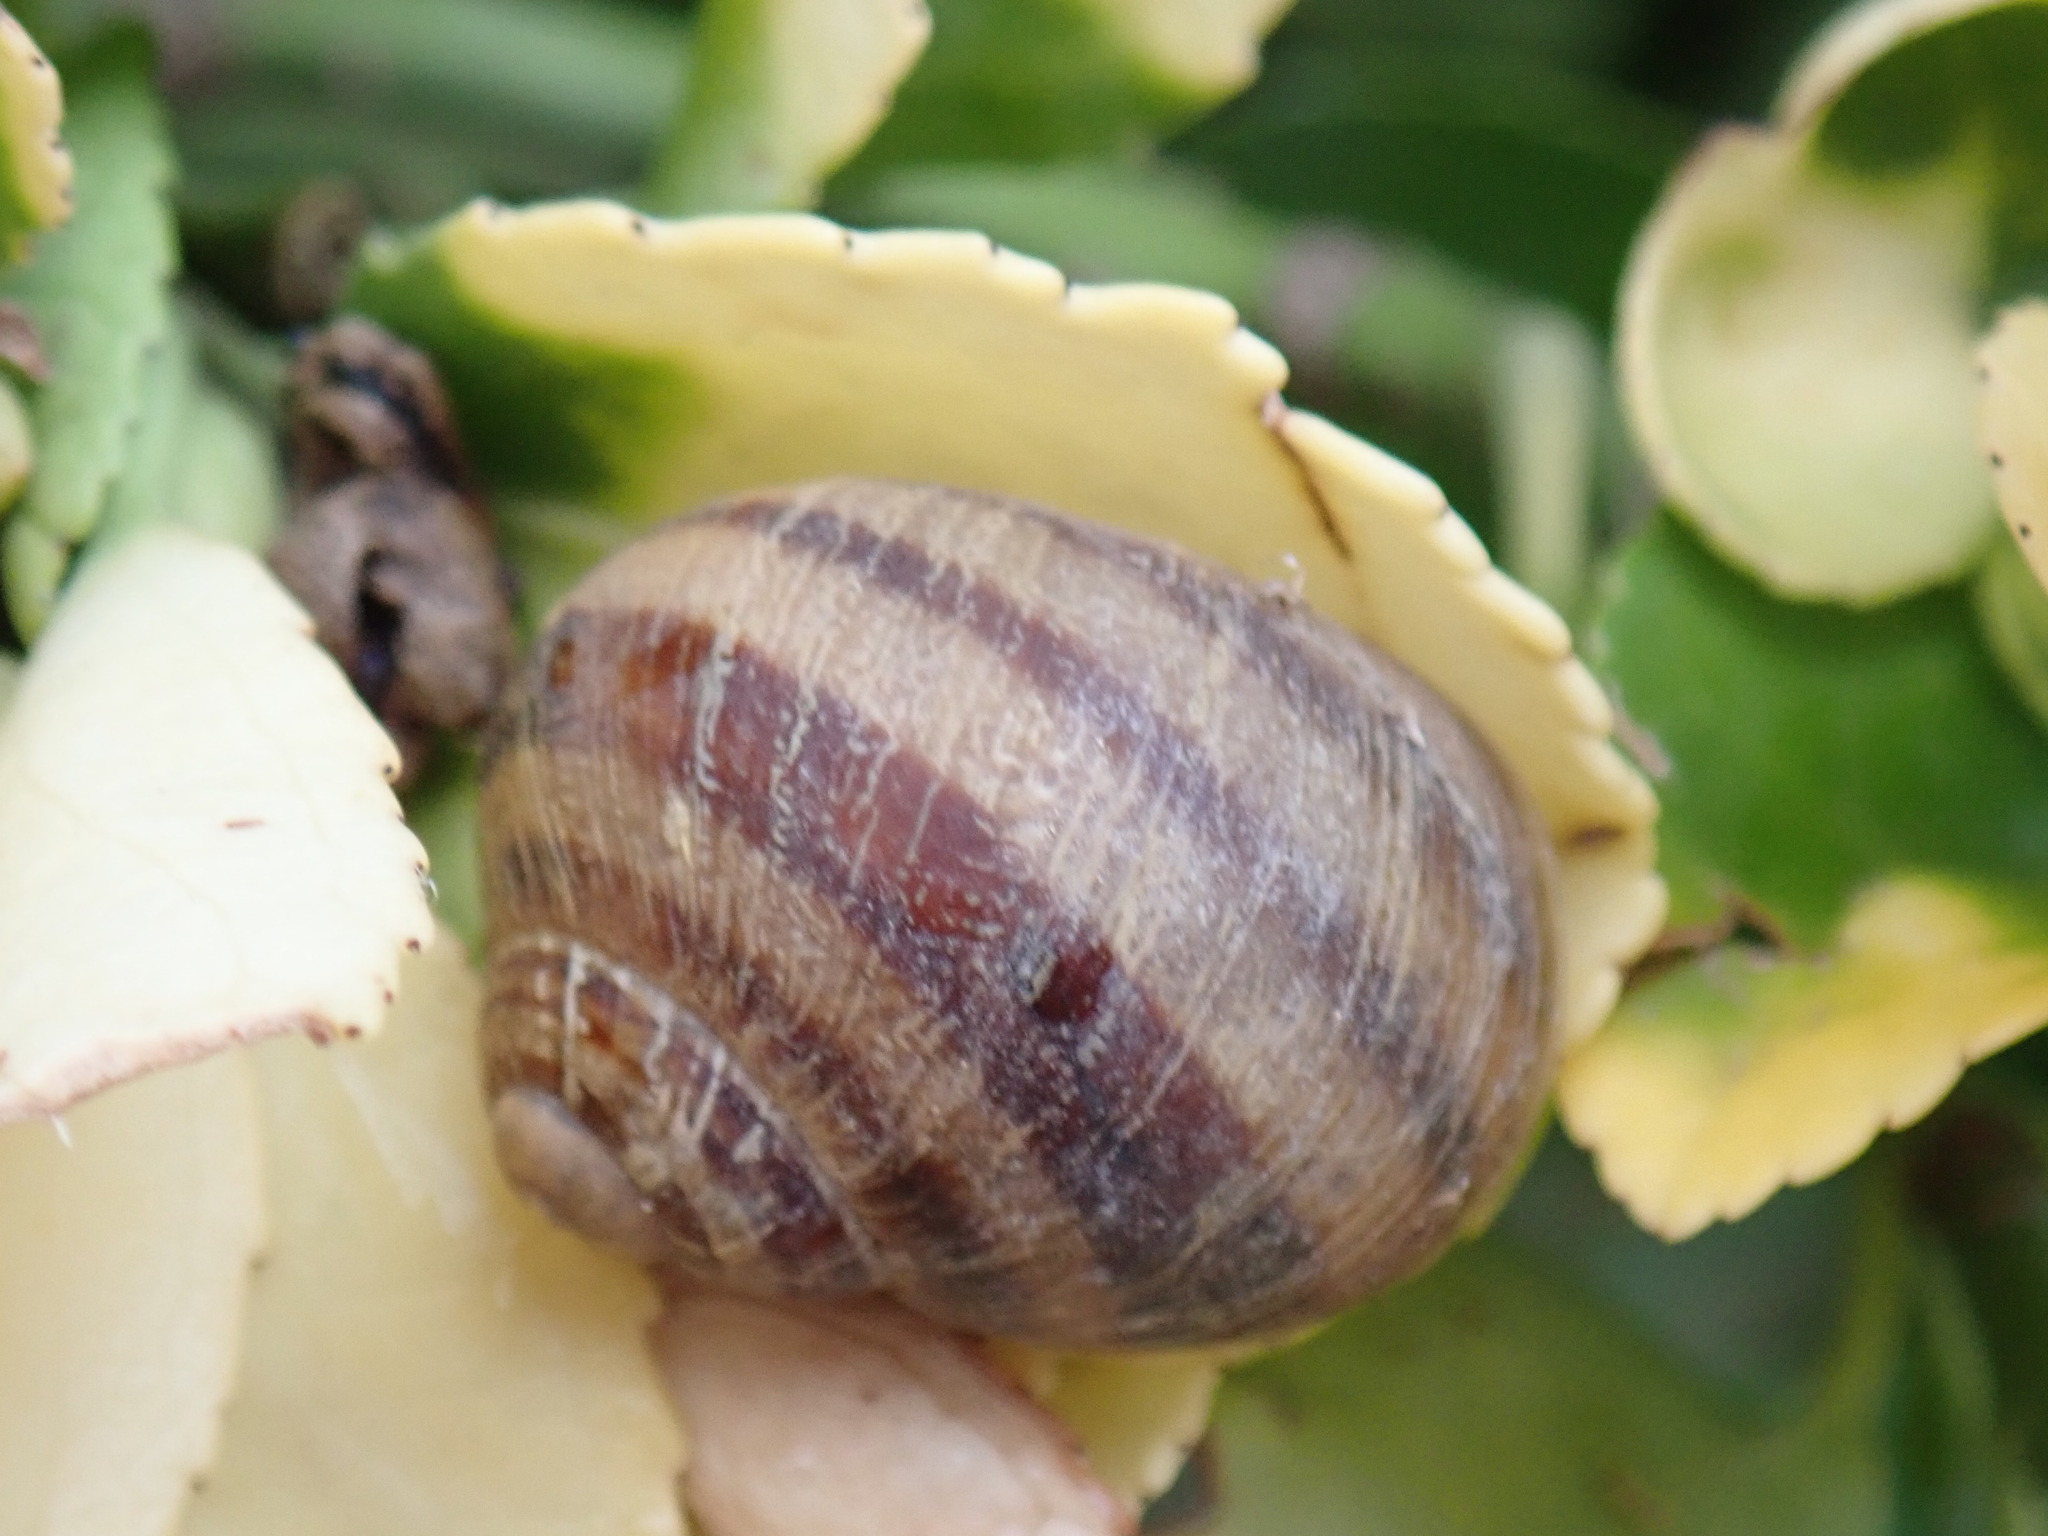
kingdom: Animalia
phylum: Mollusca
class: Gastropoda
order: Stylommatophora
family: Helicidae
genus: Cornu
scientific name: Cornu aspersum
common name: Brown garden snail
